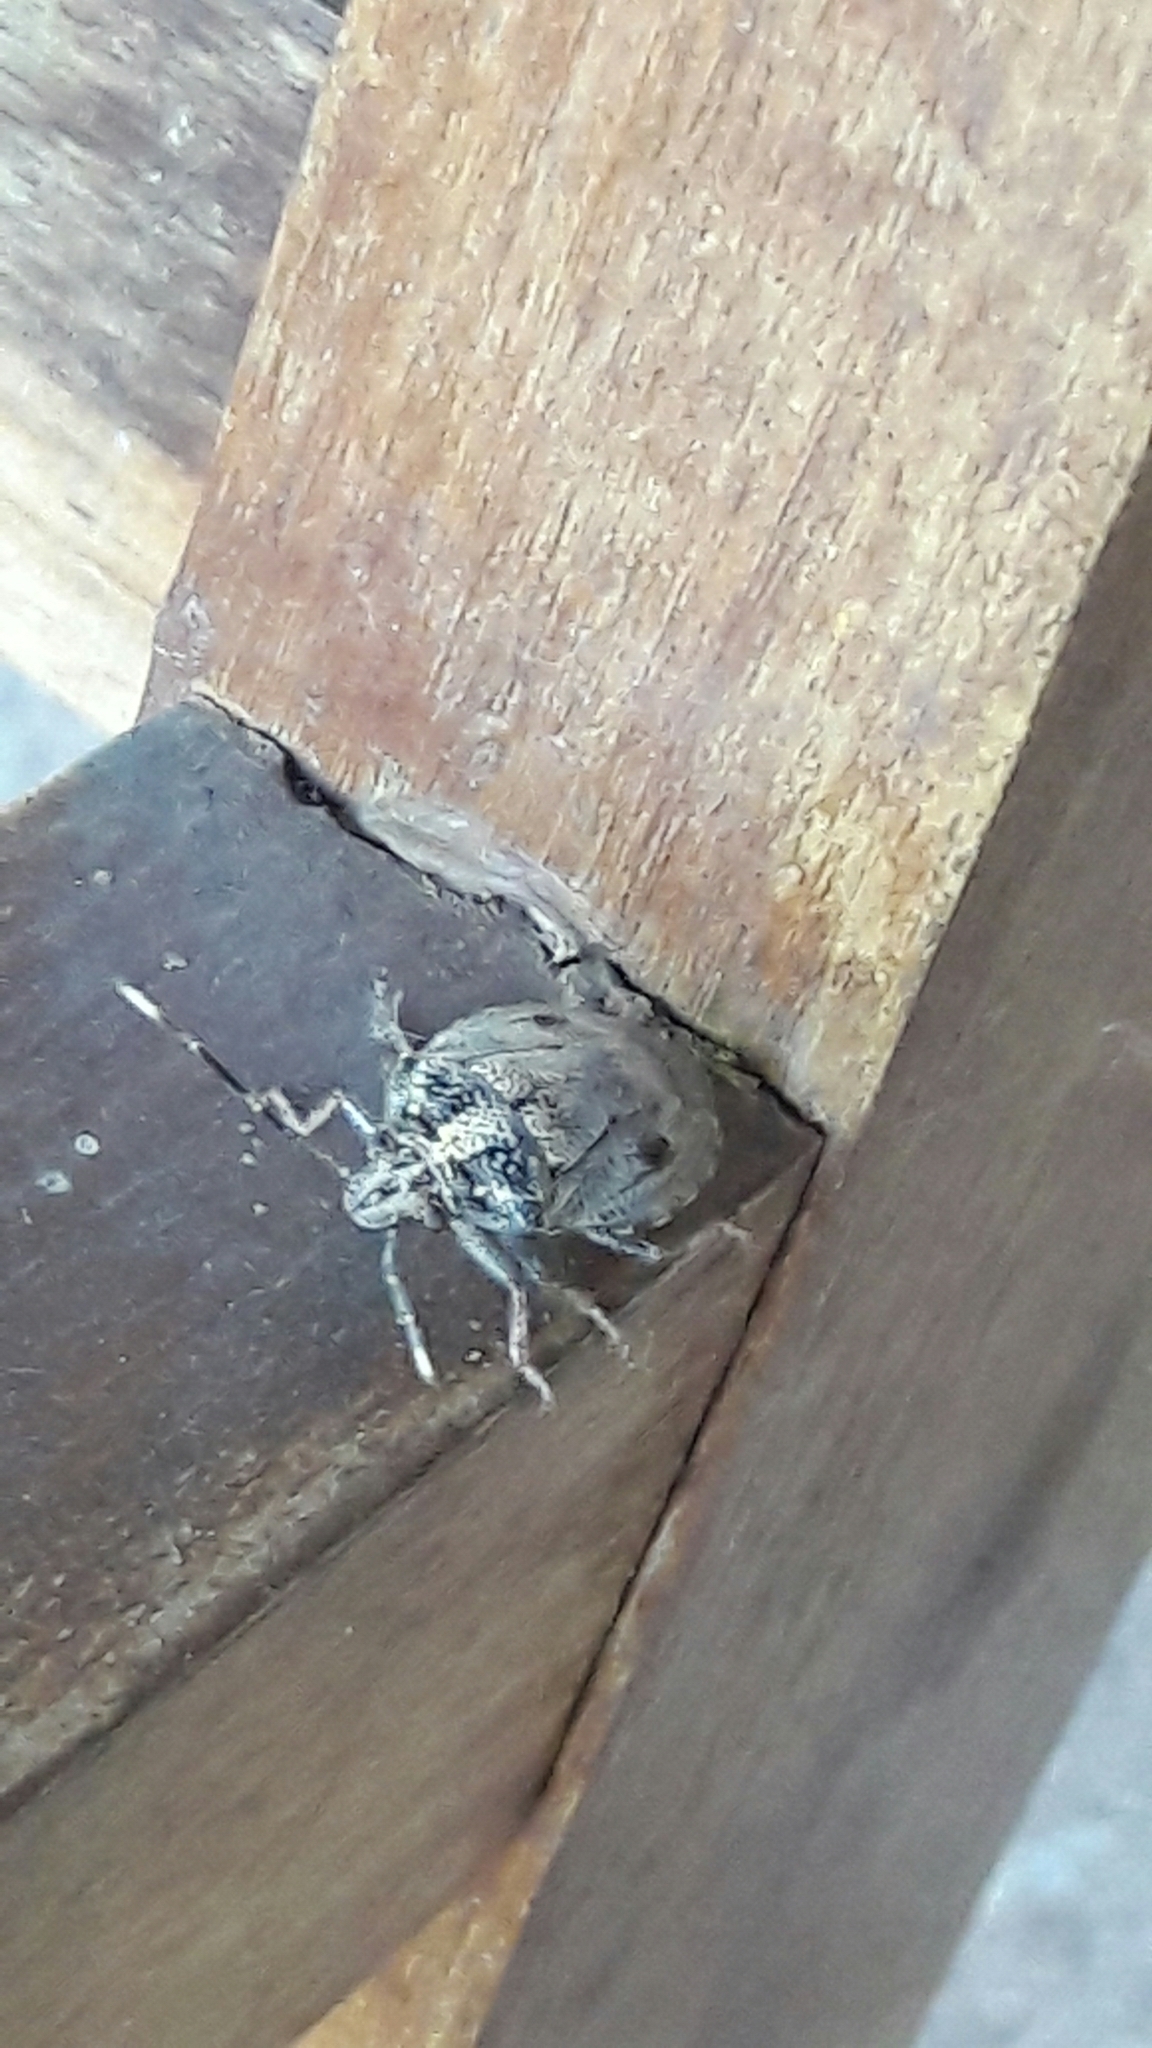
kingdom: Animalia
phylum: Arthropoda
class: Insecta
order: Hemiptera
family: Pentatomidae
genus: Antiteuchus
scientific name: Antiteuchus tripterus
